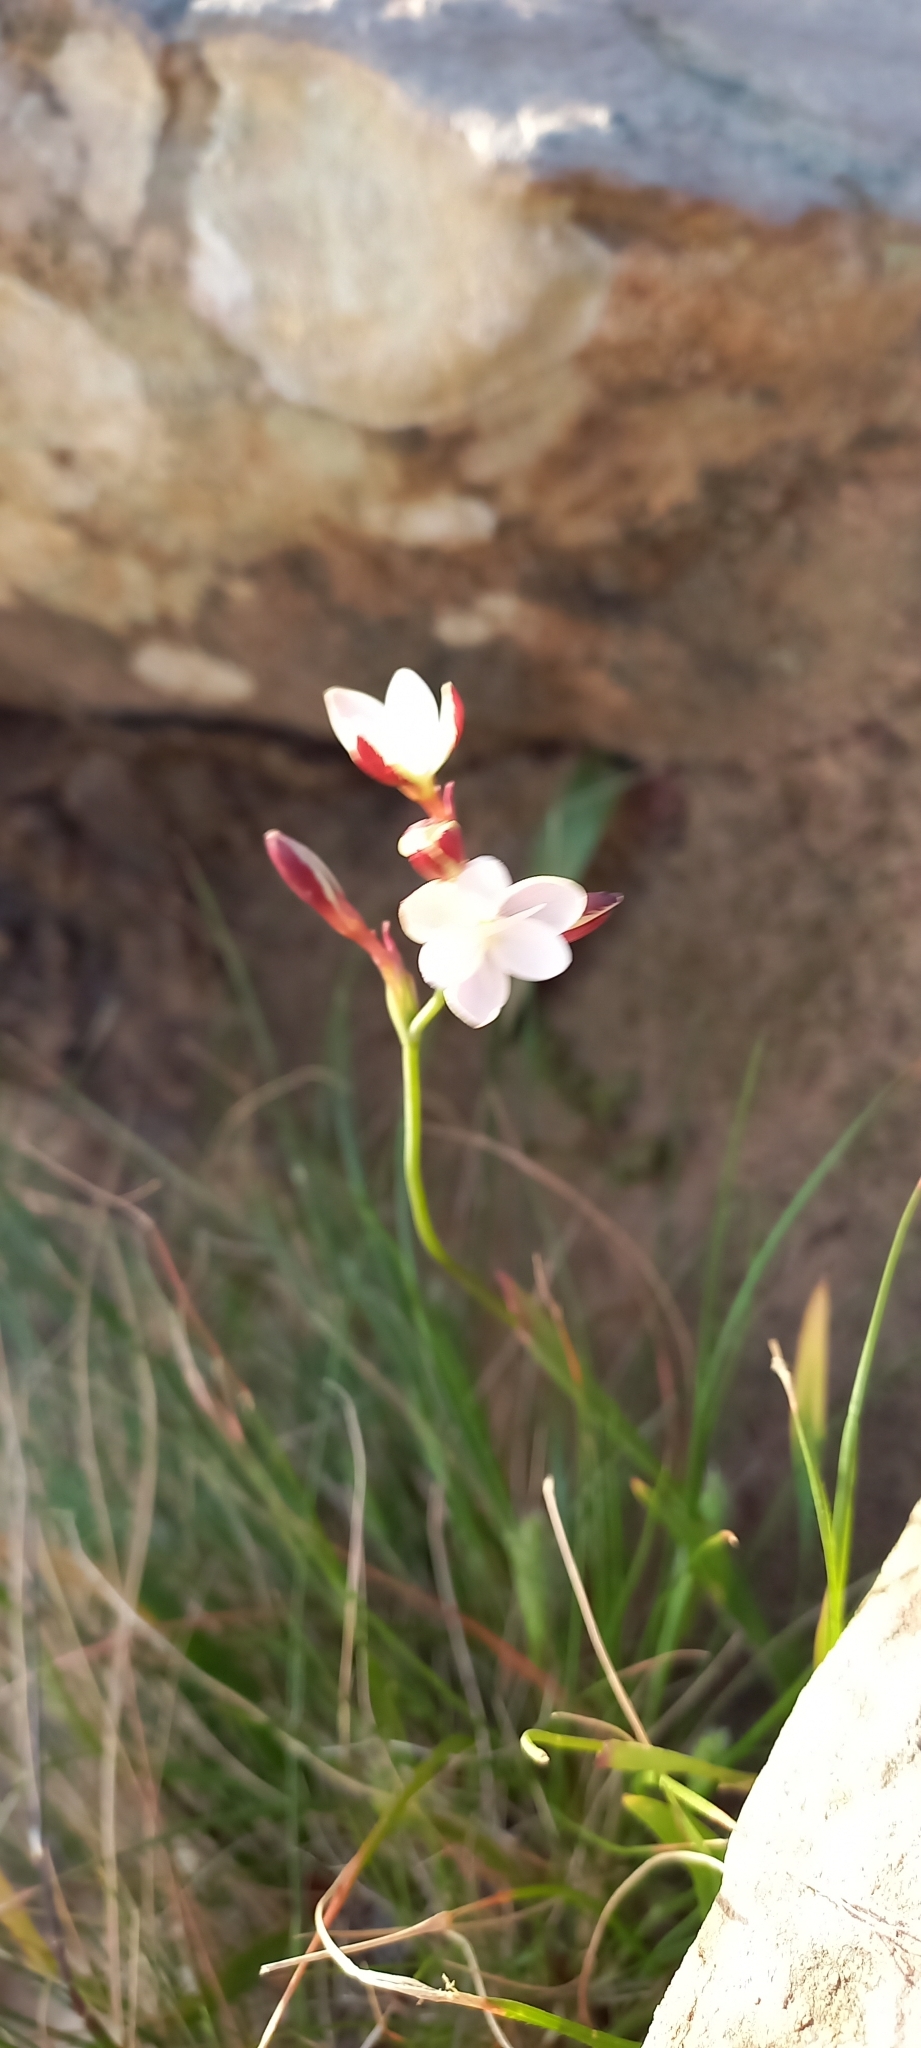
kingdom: Plantae
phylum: Tracheophyta
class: Liliopsida
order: Asparagales
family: Iridaceae
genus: Hesperantha
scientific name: Hesperantha falcata
